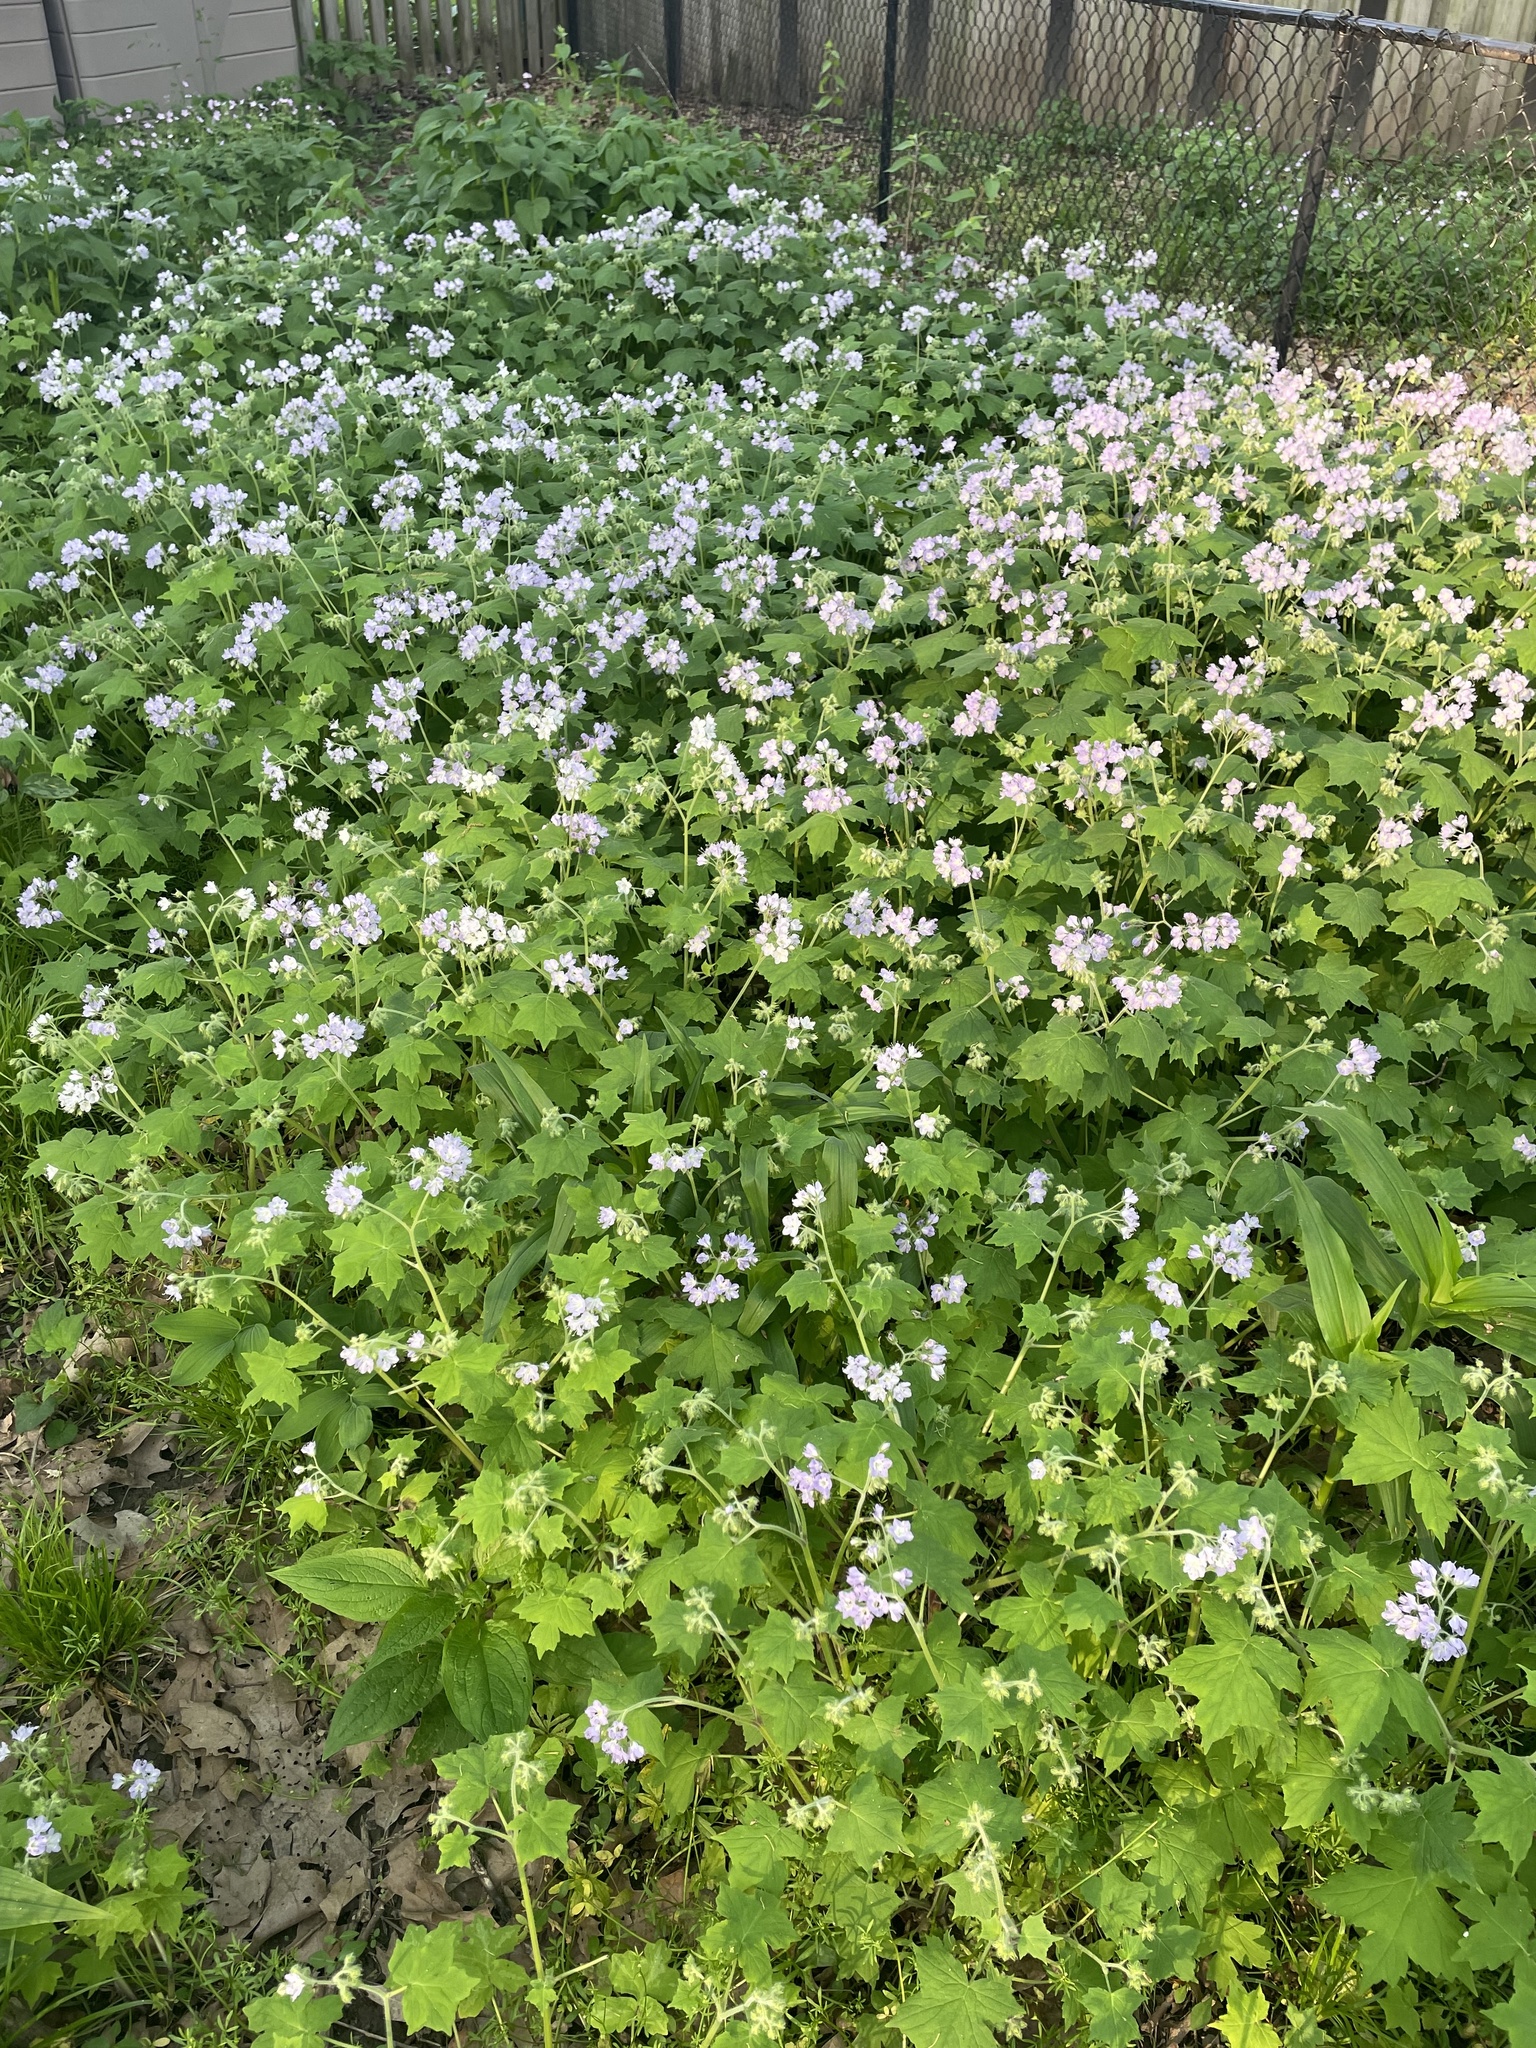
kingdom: Plantae
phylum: Tracheophyta
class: Magnoliopsida
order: Boraginales
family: Hydrophyllaceae
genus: Hydrophyllum
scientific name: Hydrophyllum appendiculatum
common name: Appendaged waterleaf
